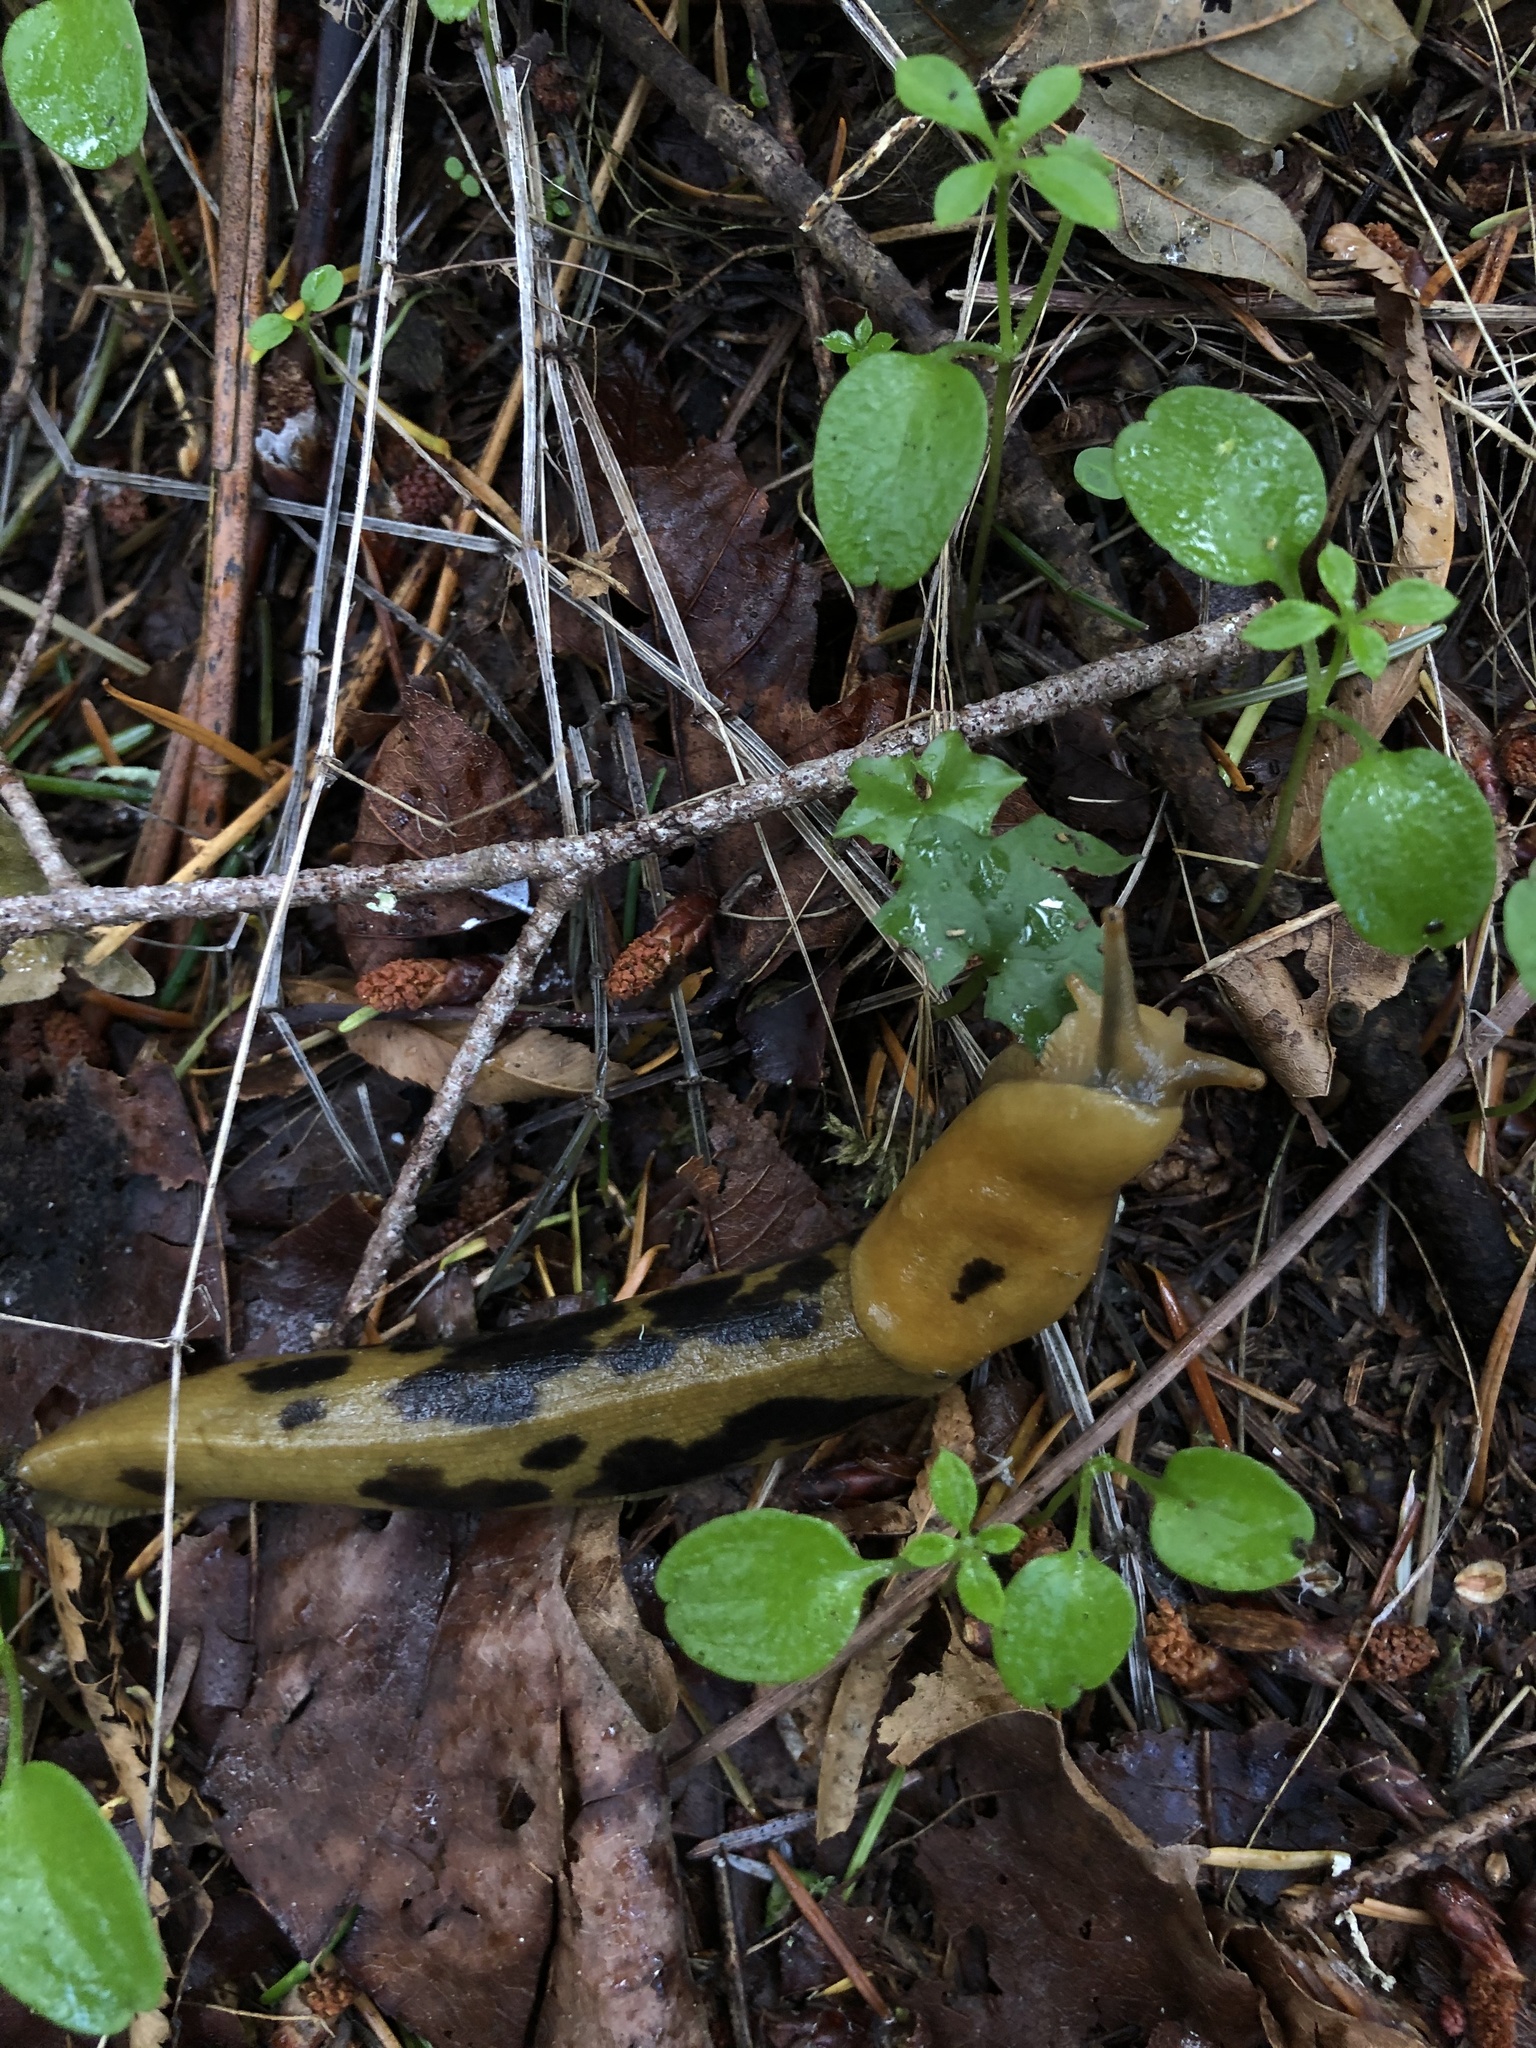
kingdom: Animalia
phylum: Mollusca
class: Gastropoda
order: Stylommatophora
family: Ariolimacidae
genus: Ariolimax
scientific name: Ariolimax columbianus
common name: Pacific banana slug
